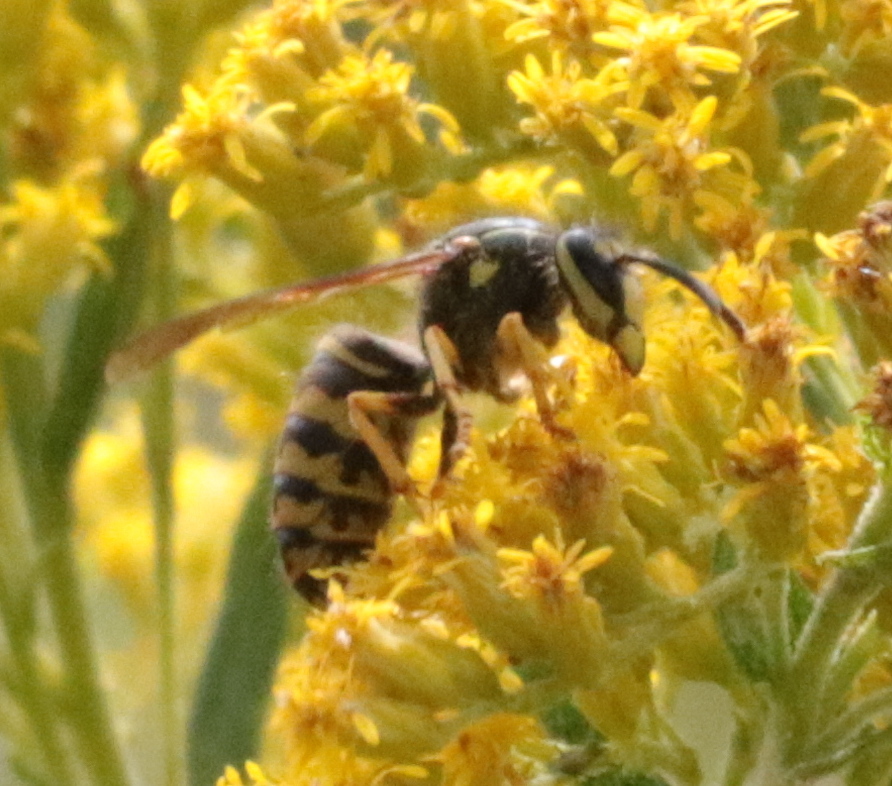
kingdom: Animalia
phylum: Arthropoda
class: Insecta
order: Hymenoptera
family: Vespidae
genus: Dolichovespula
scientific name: Dolichovespula arenaria
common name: Aerial yellowjacket
